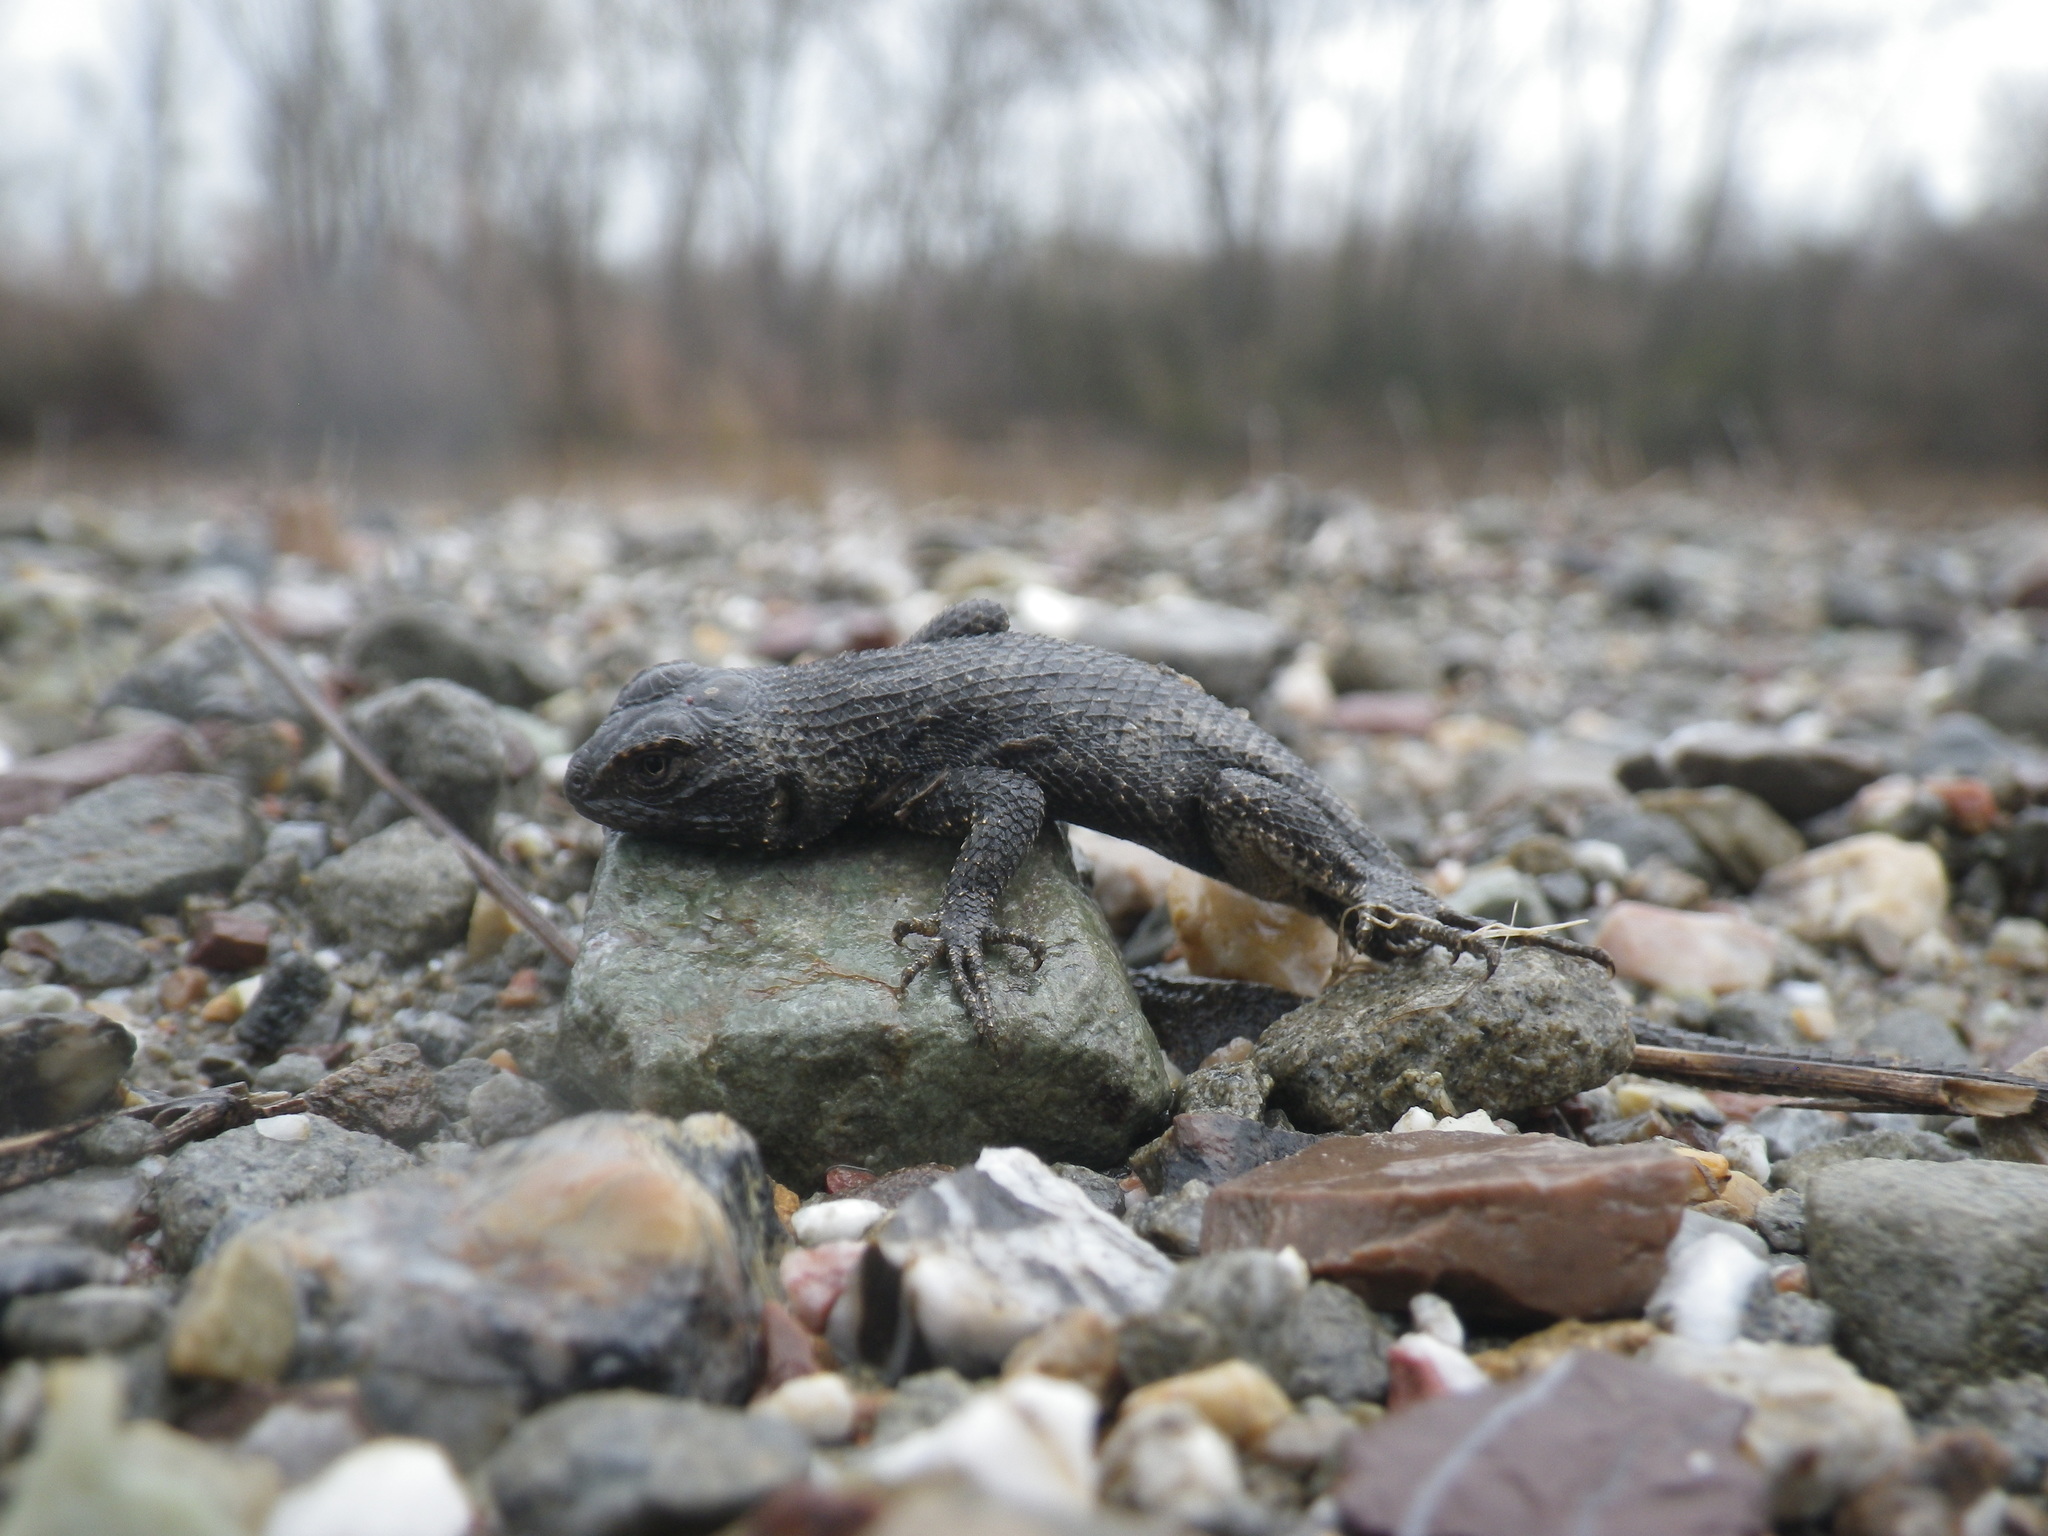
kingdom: Animalia
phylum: Chordata
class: Squamata
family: Phrynosomatidae
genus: Sceloporus
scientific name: Sceloporus occidentalis
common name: Western fence lizard
